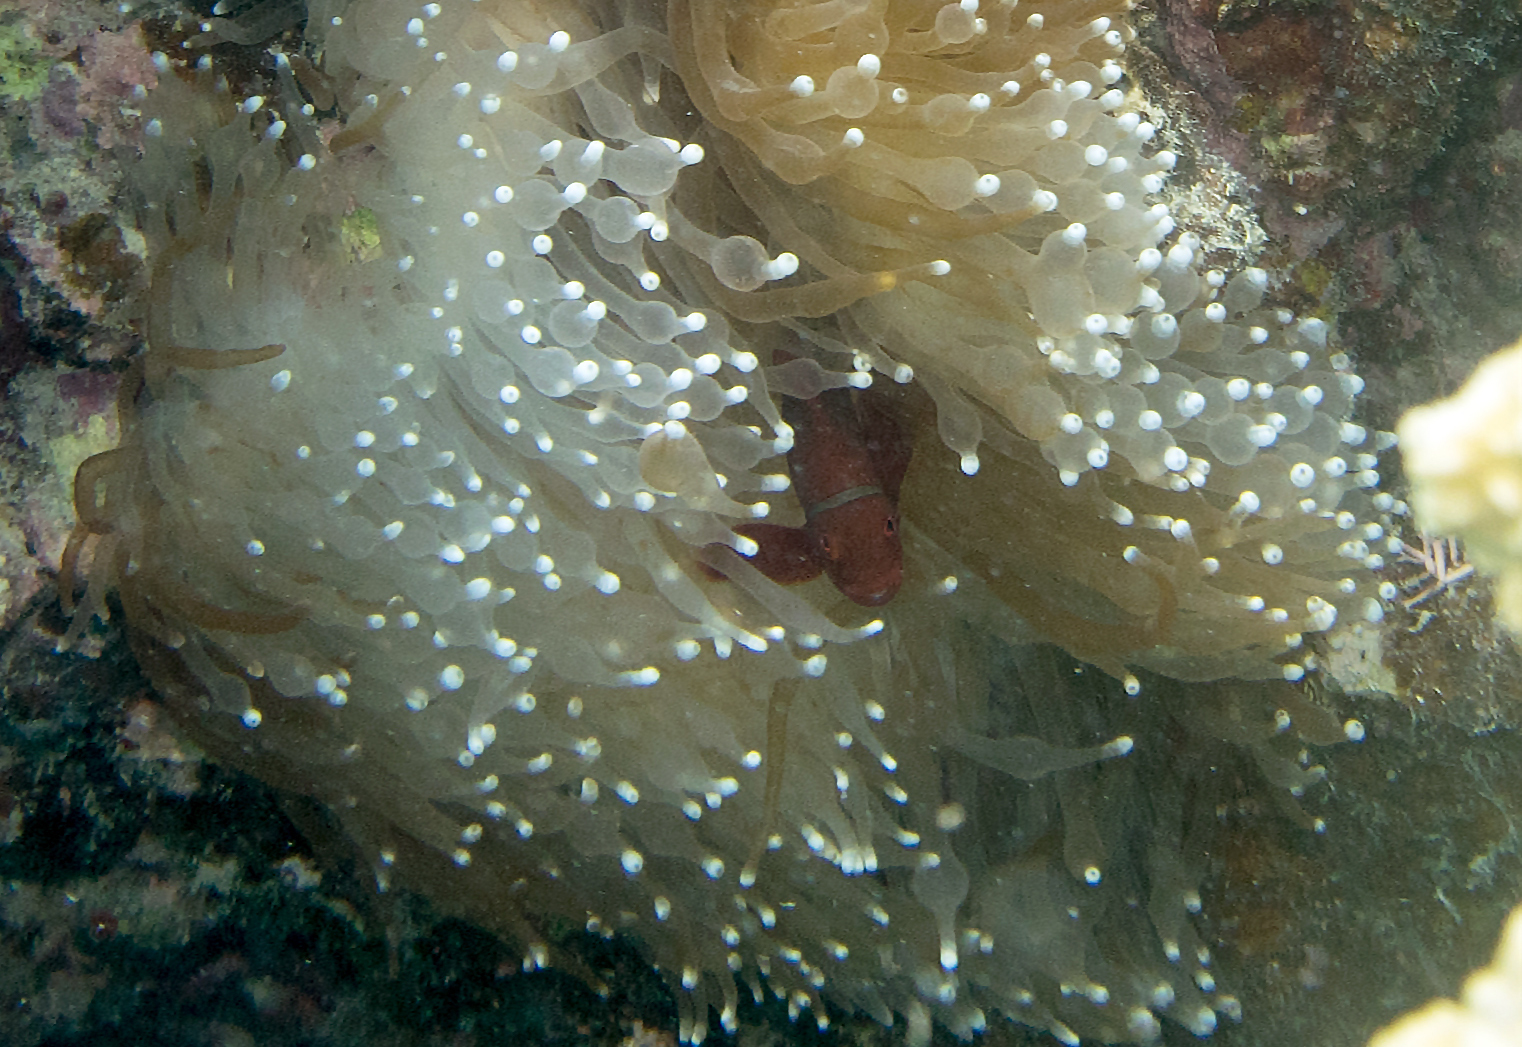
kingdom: Animalia
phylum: Cnidaria
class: Anthozoa
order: Actiniaria
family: Actiniidae
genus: Entacmaea
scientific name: Entacmaea quadricolor
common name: Bulb tentacle sea anemone
